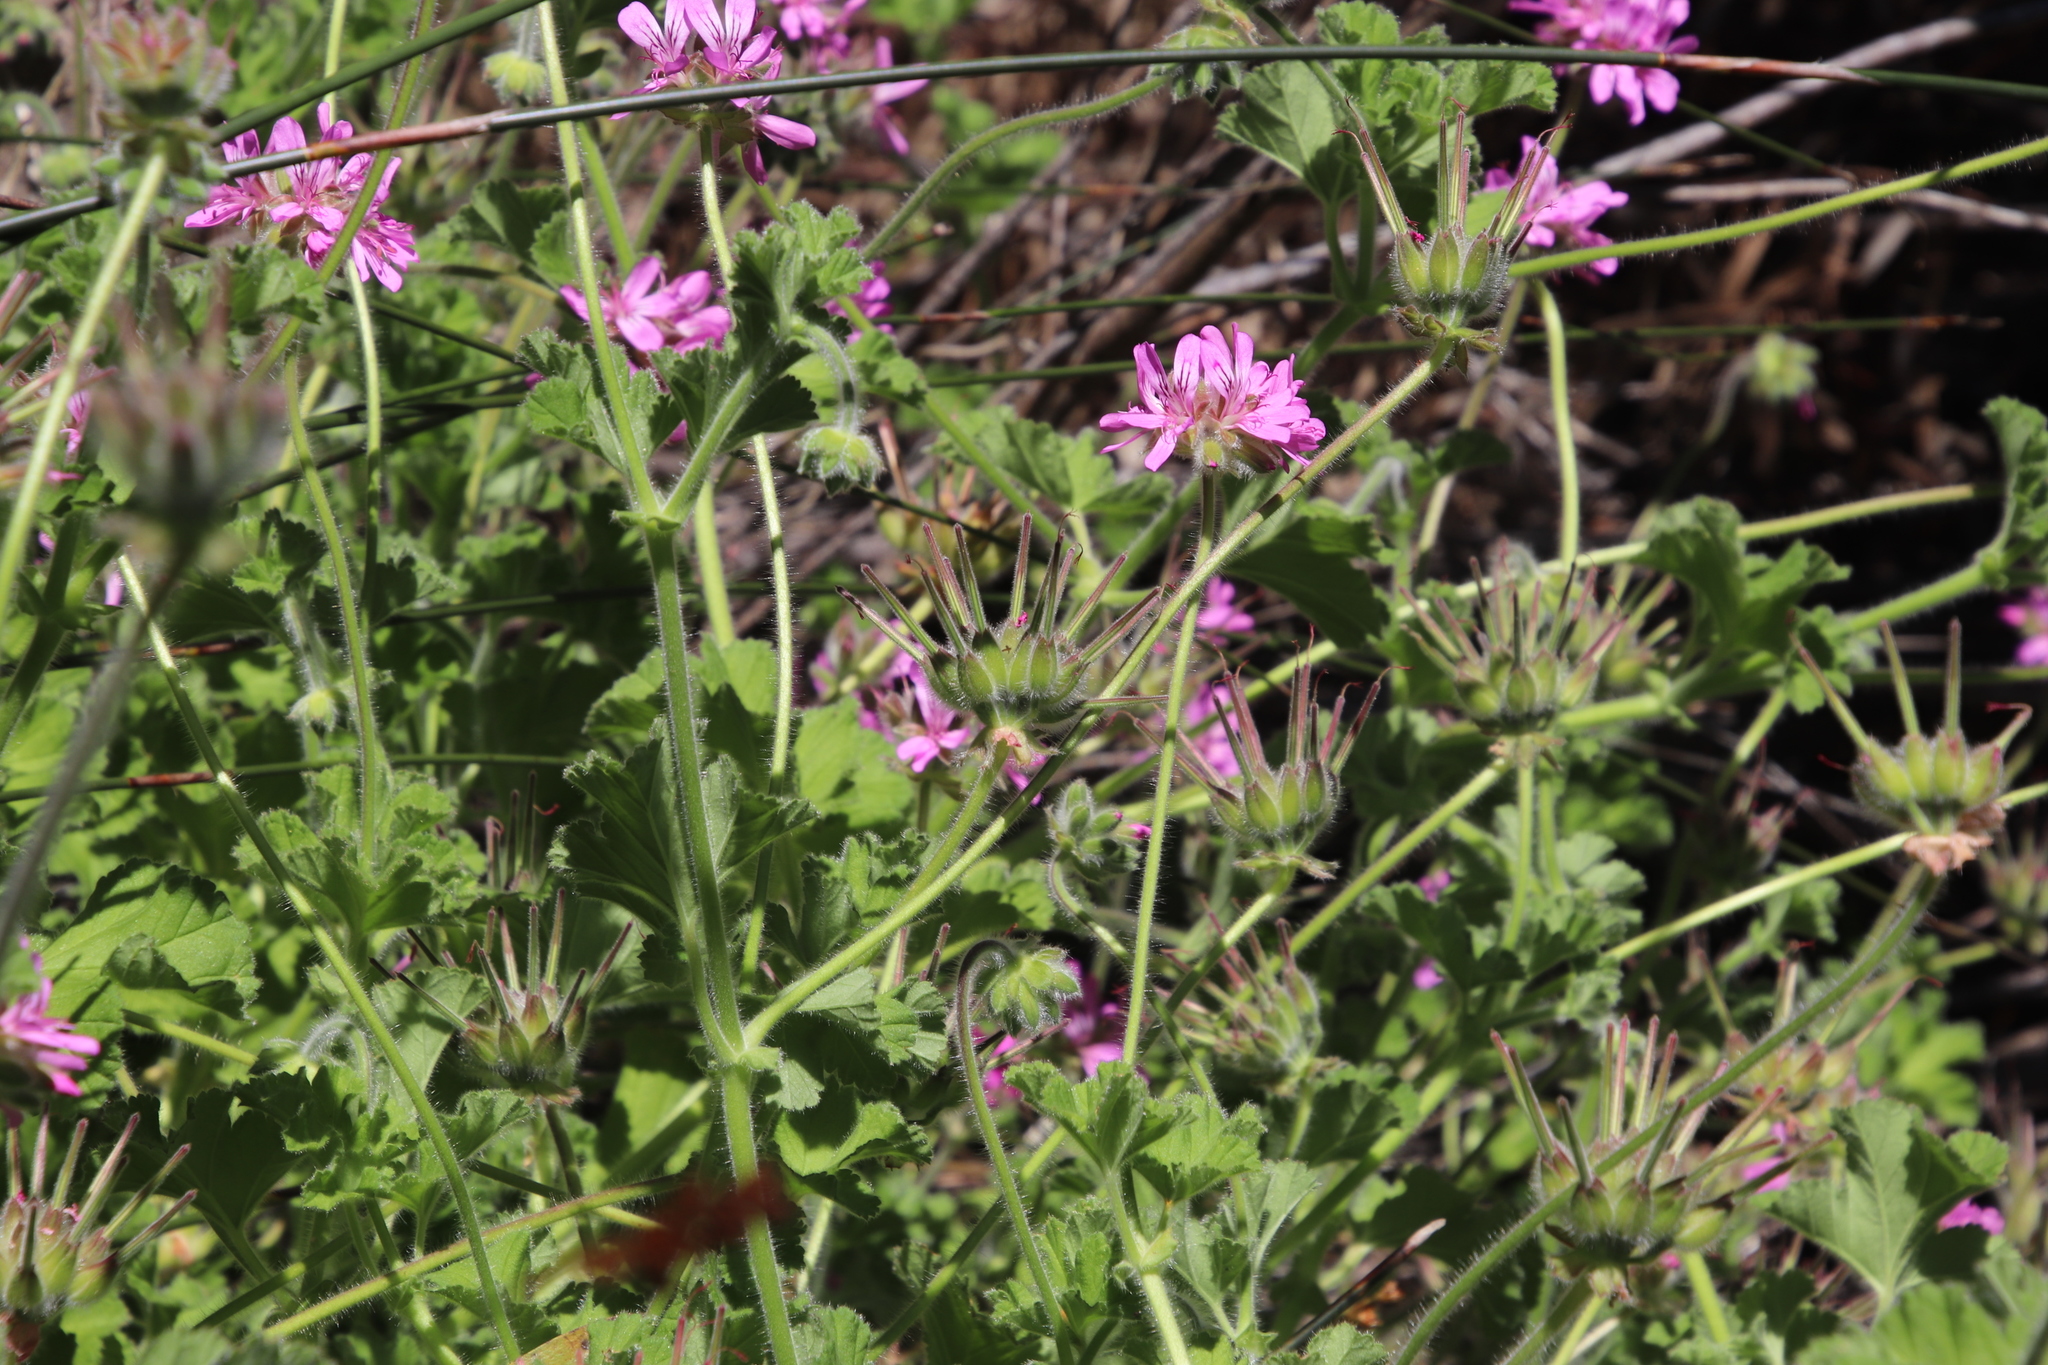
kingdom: Plantae
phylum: Tracheophyta
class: Magnoliopsida
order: Geraniales
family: Geraniaceae
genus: Pelargonium
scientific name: Pelargonium capitatum
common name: Rose scented geranium
